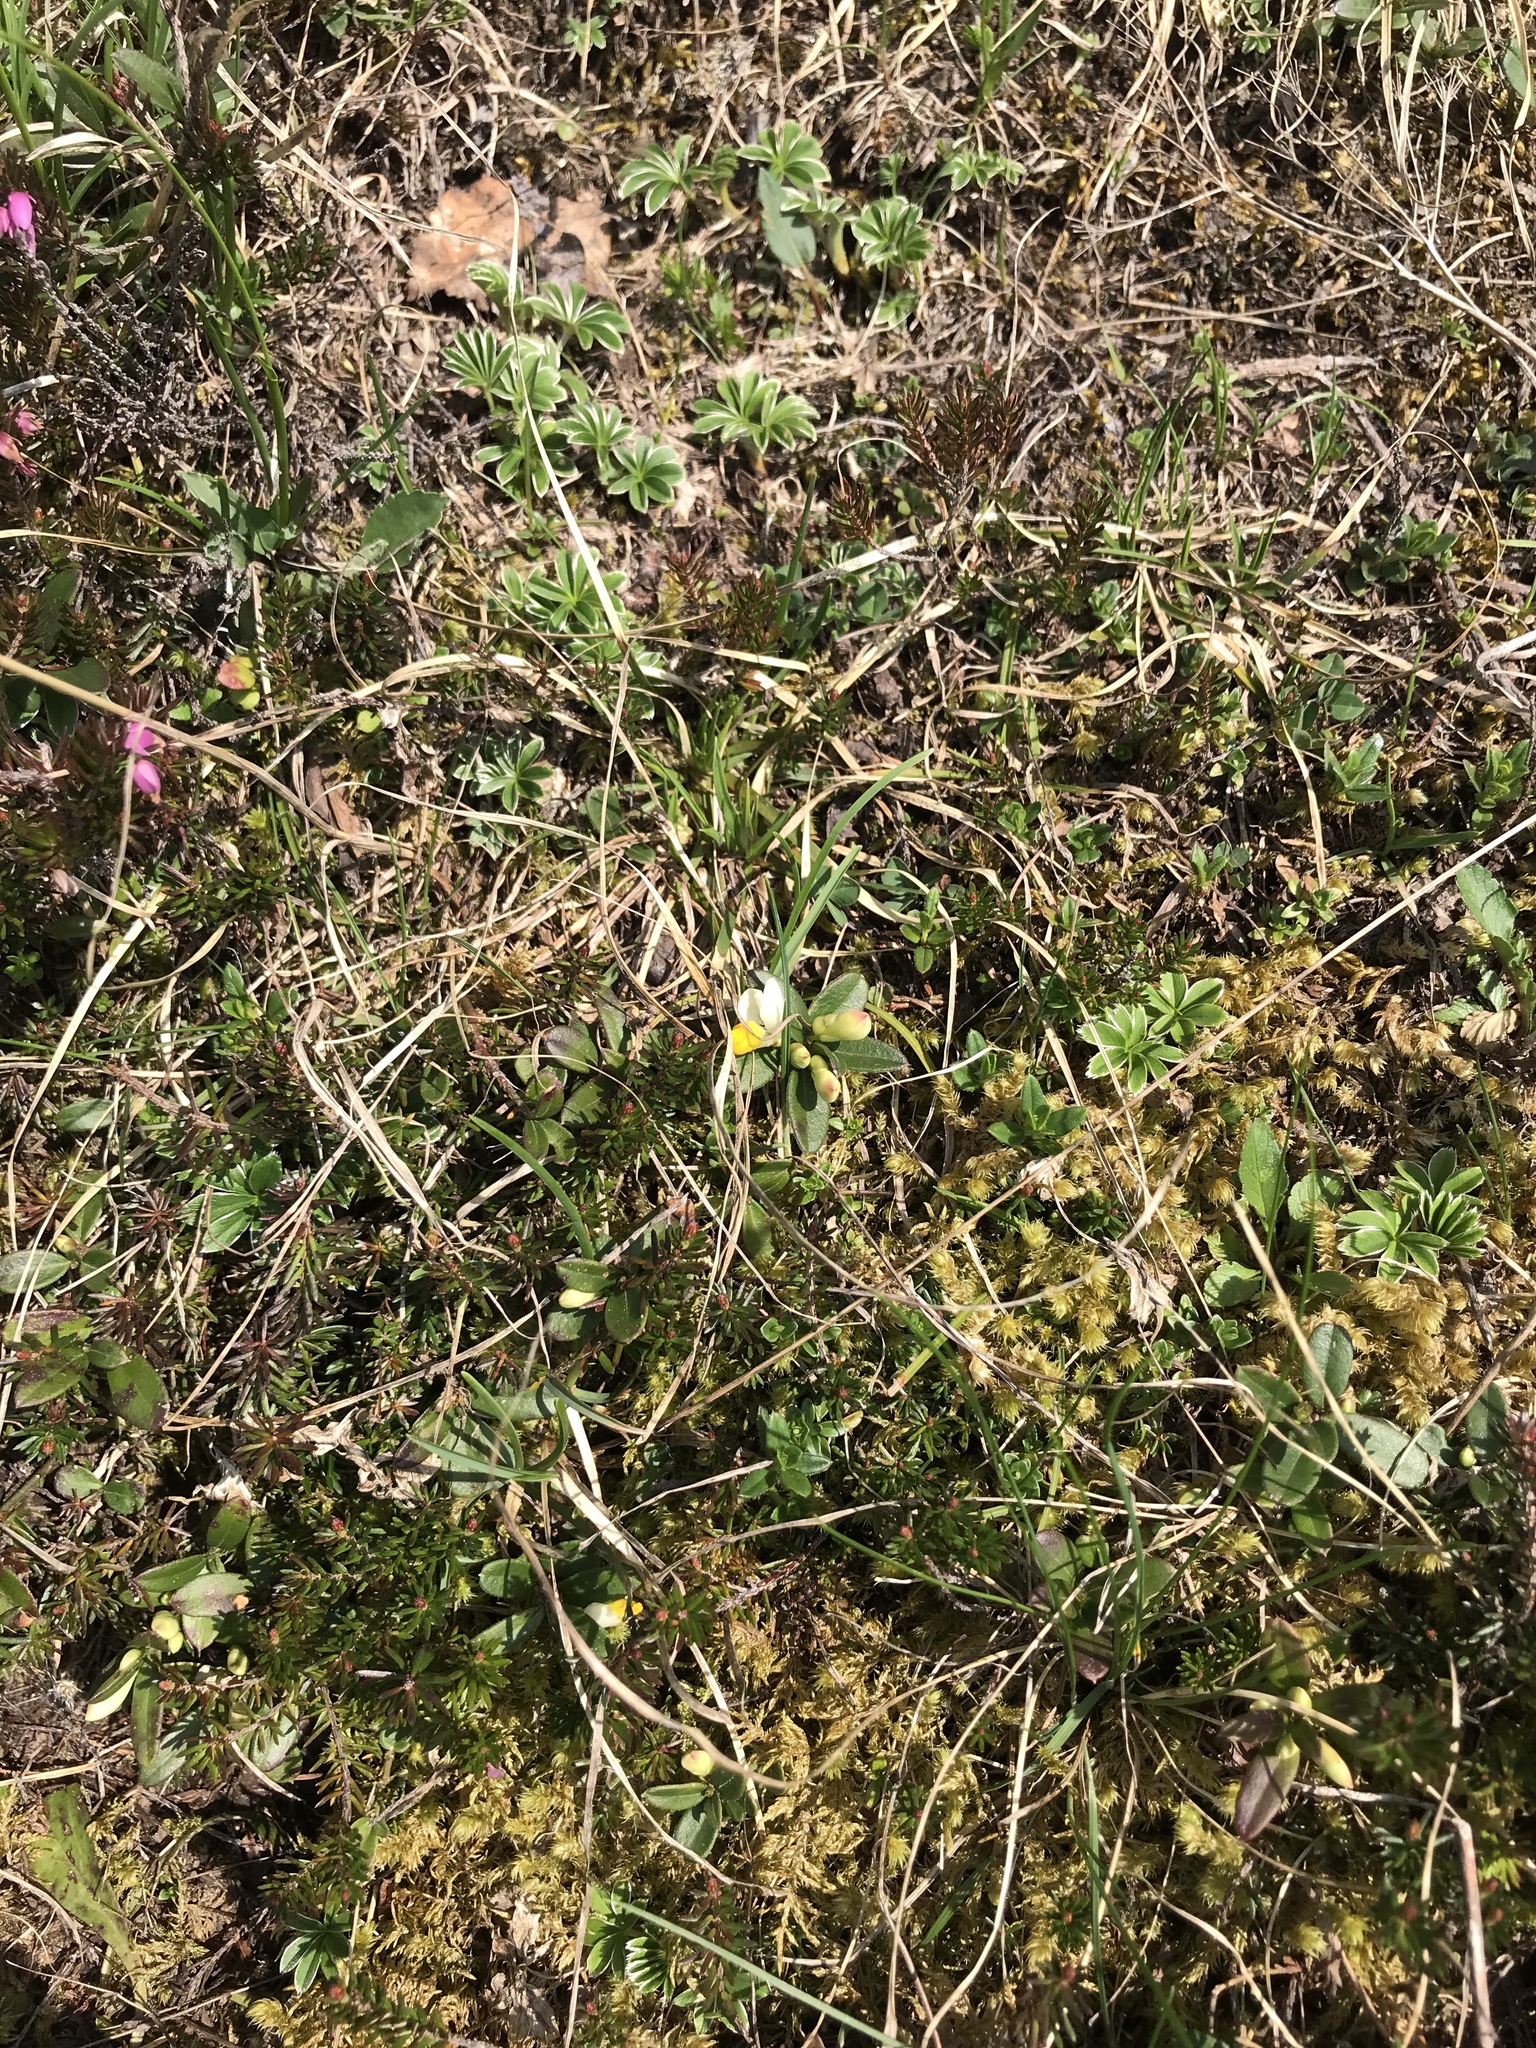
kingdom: Plantae
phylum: Tracheophyta
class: Magnoliopsida
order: Fabales
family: Polygalaceae
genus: Polygaloides
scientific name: Polygaloides chamaebuxus
